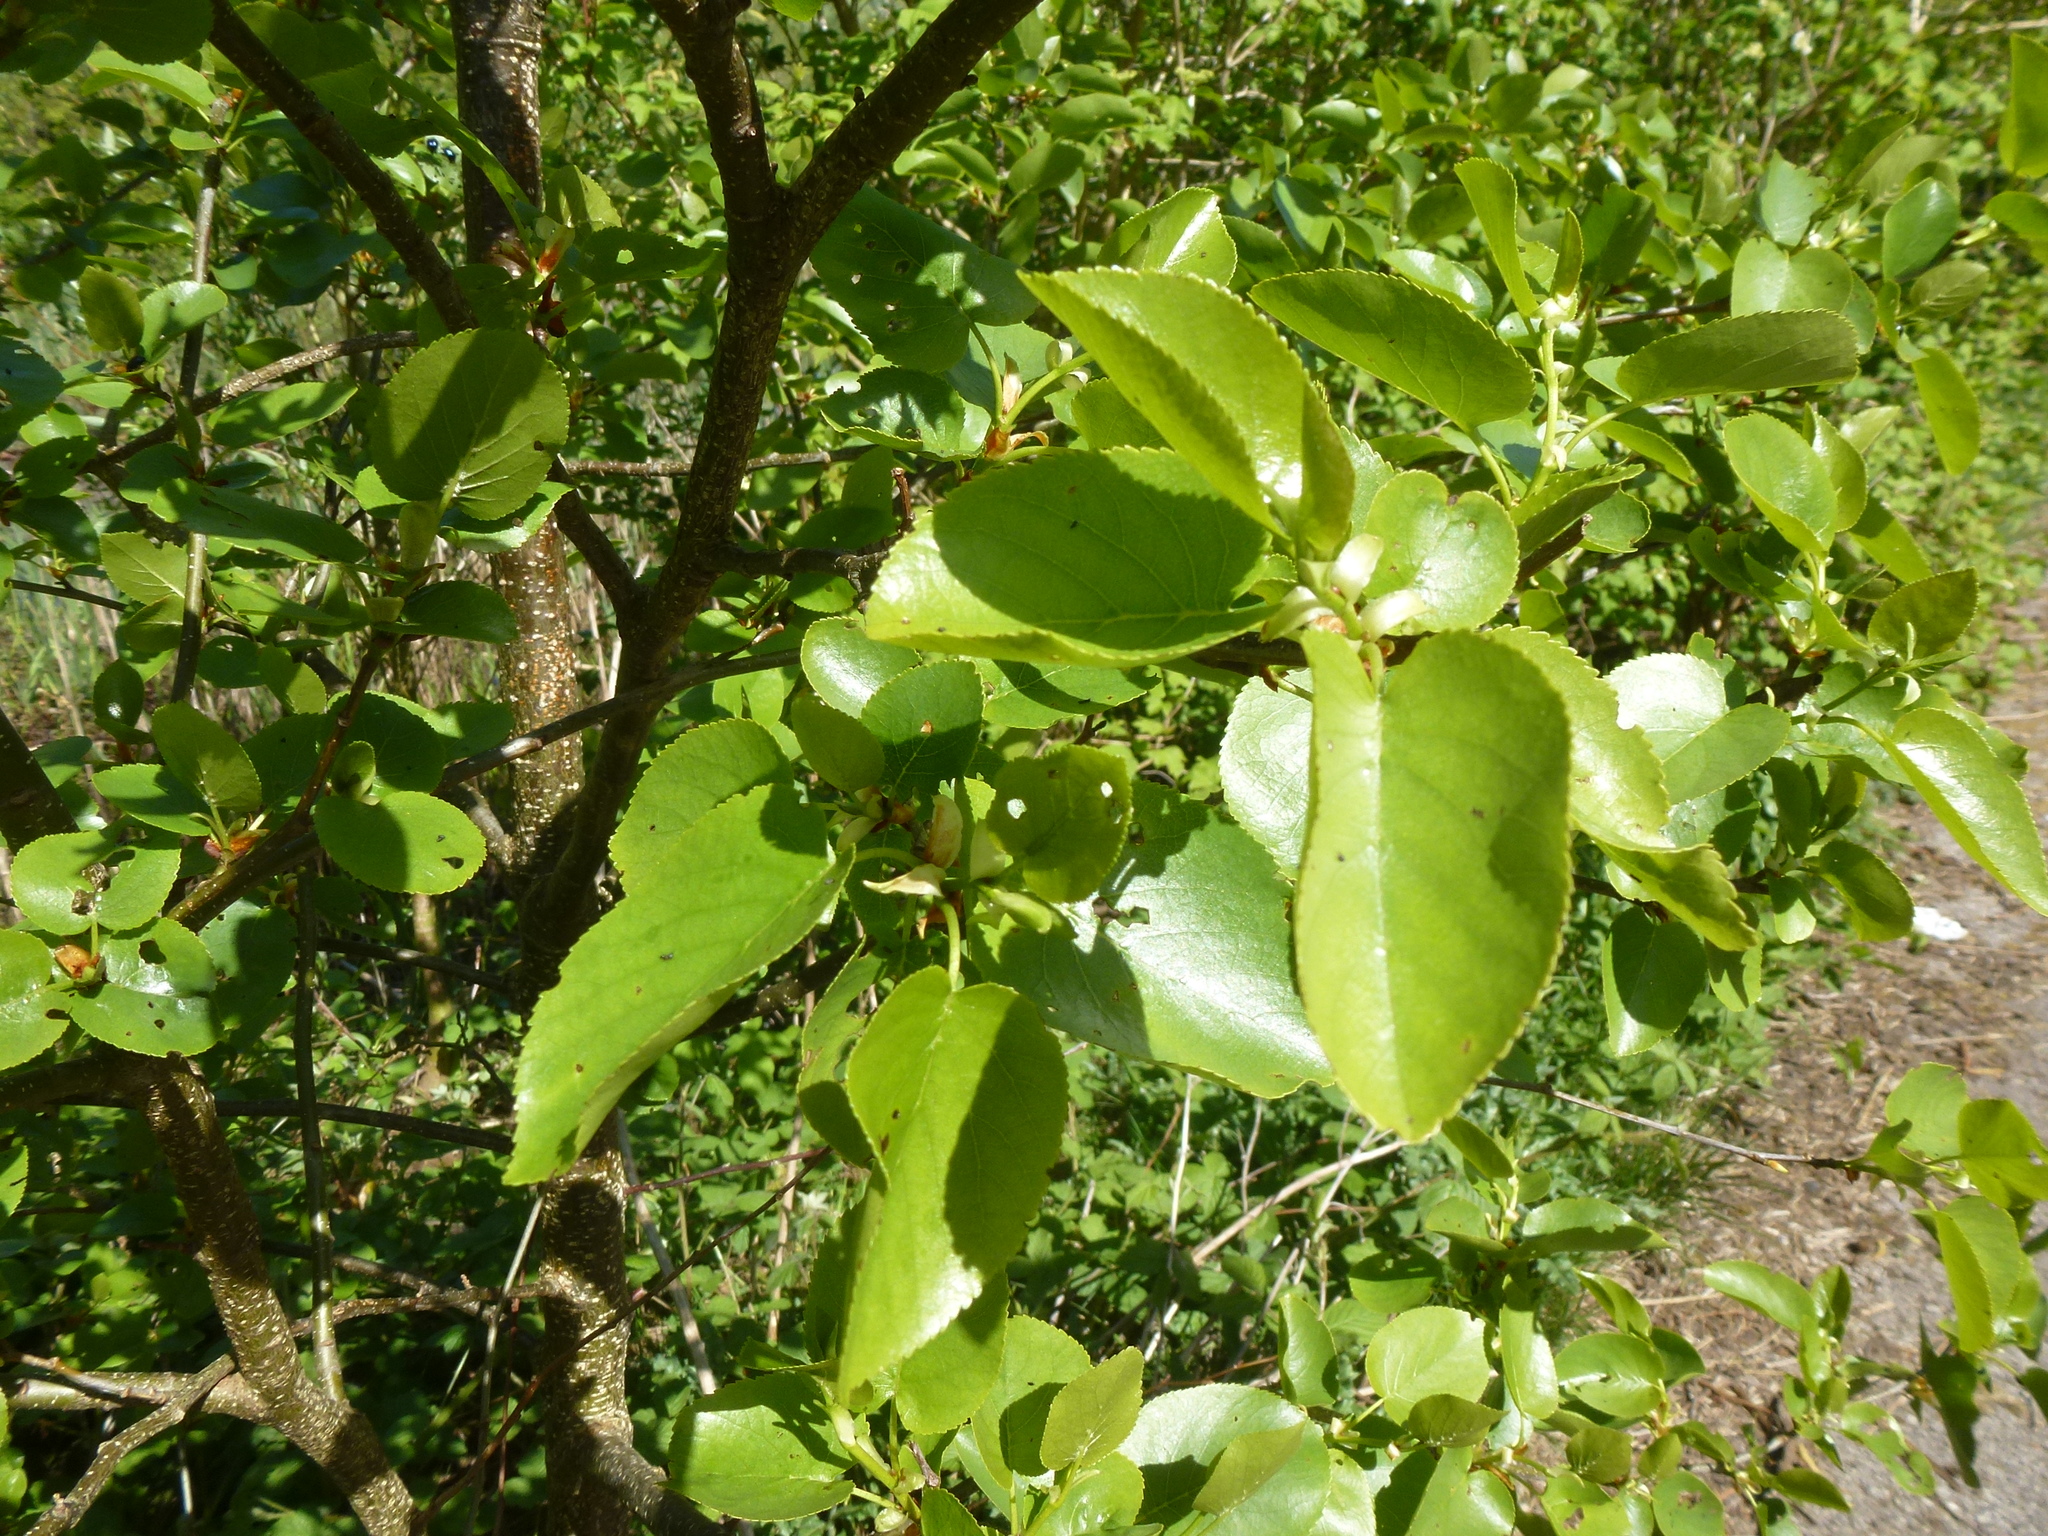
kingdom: Plantae
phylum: Tracheophyta
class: Magnoliopsida
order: Fagales
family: Betulaceae
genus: Alnus
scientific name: Alnus cordata
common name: Italian alder
